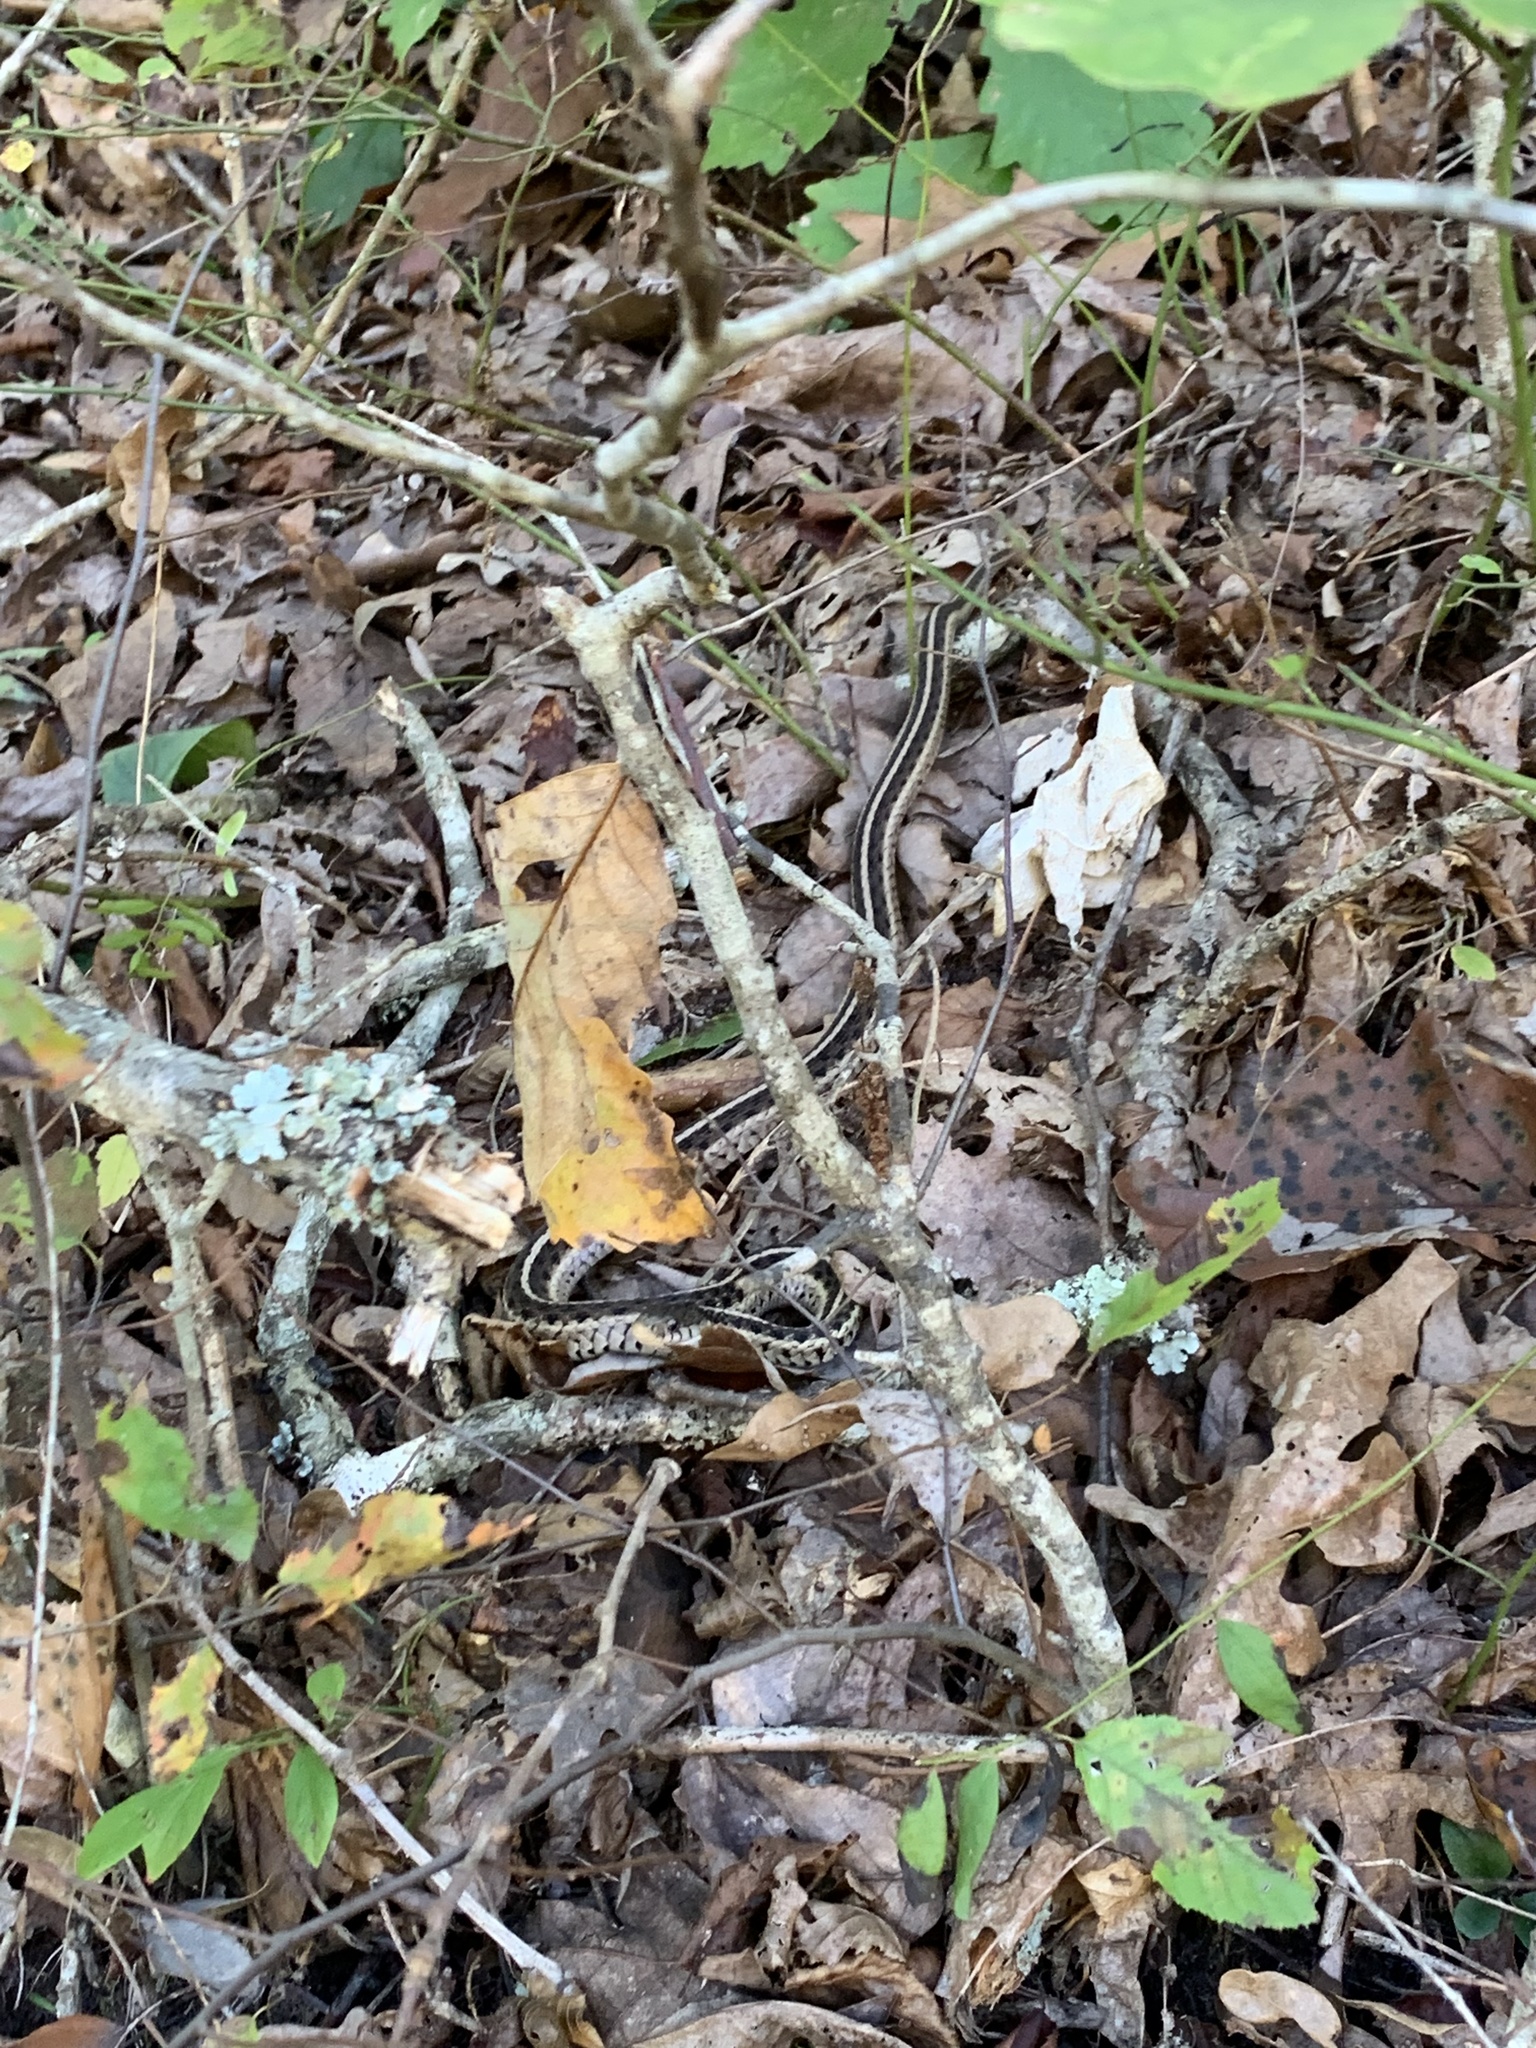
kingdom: Animalia
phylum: Chordata
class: Squamata
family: Colubridae
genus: Thamnophis
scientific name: Thamnophis sirtalis
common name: Common garter snake
